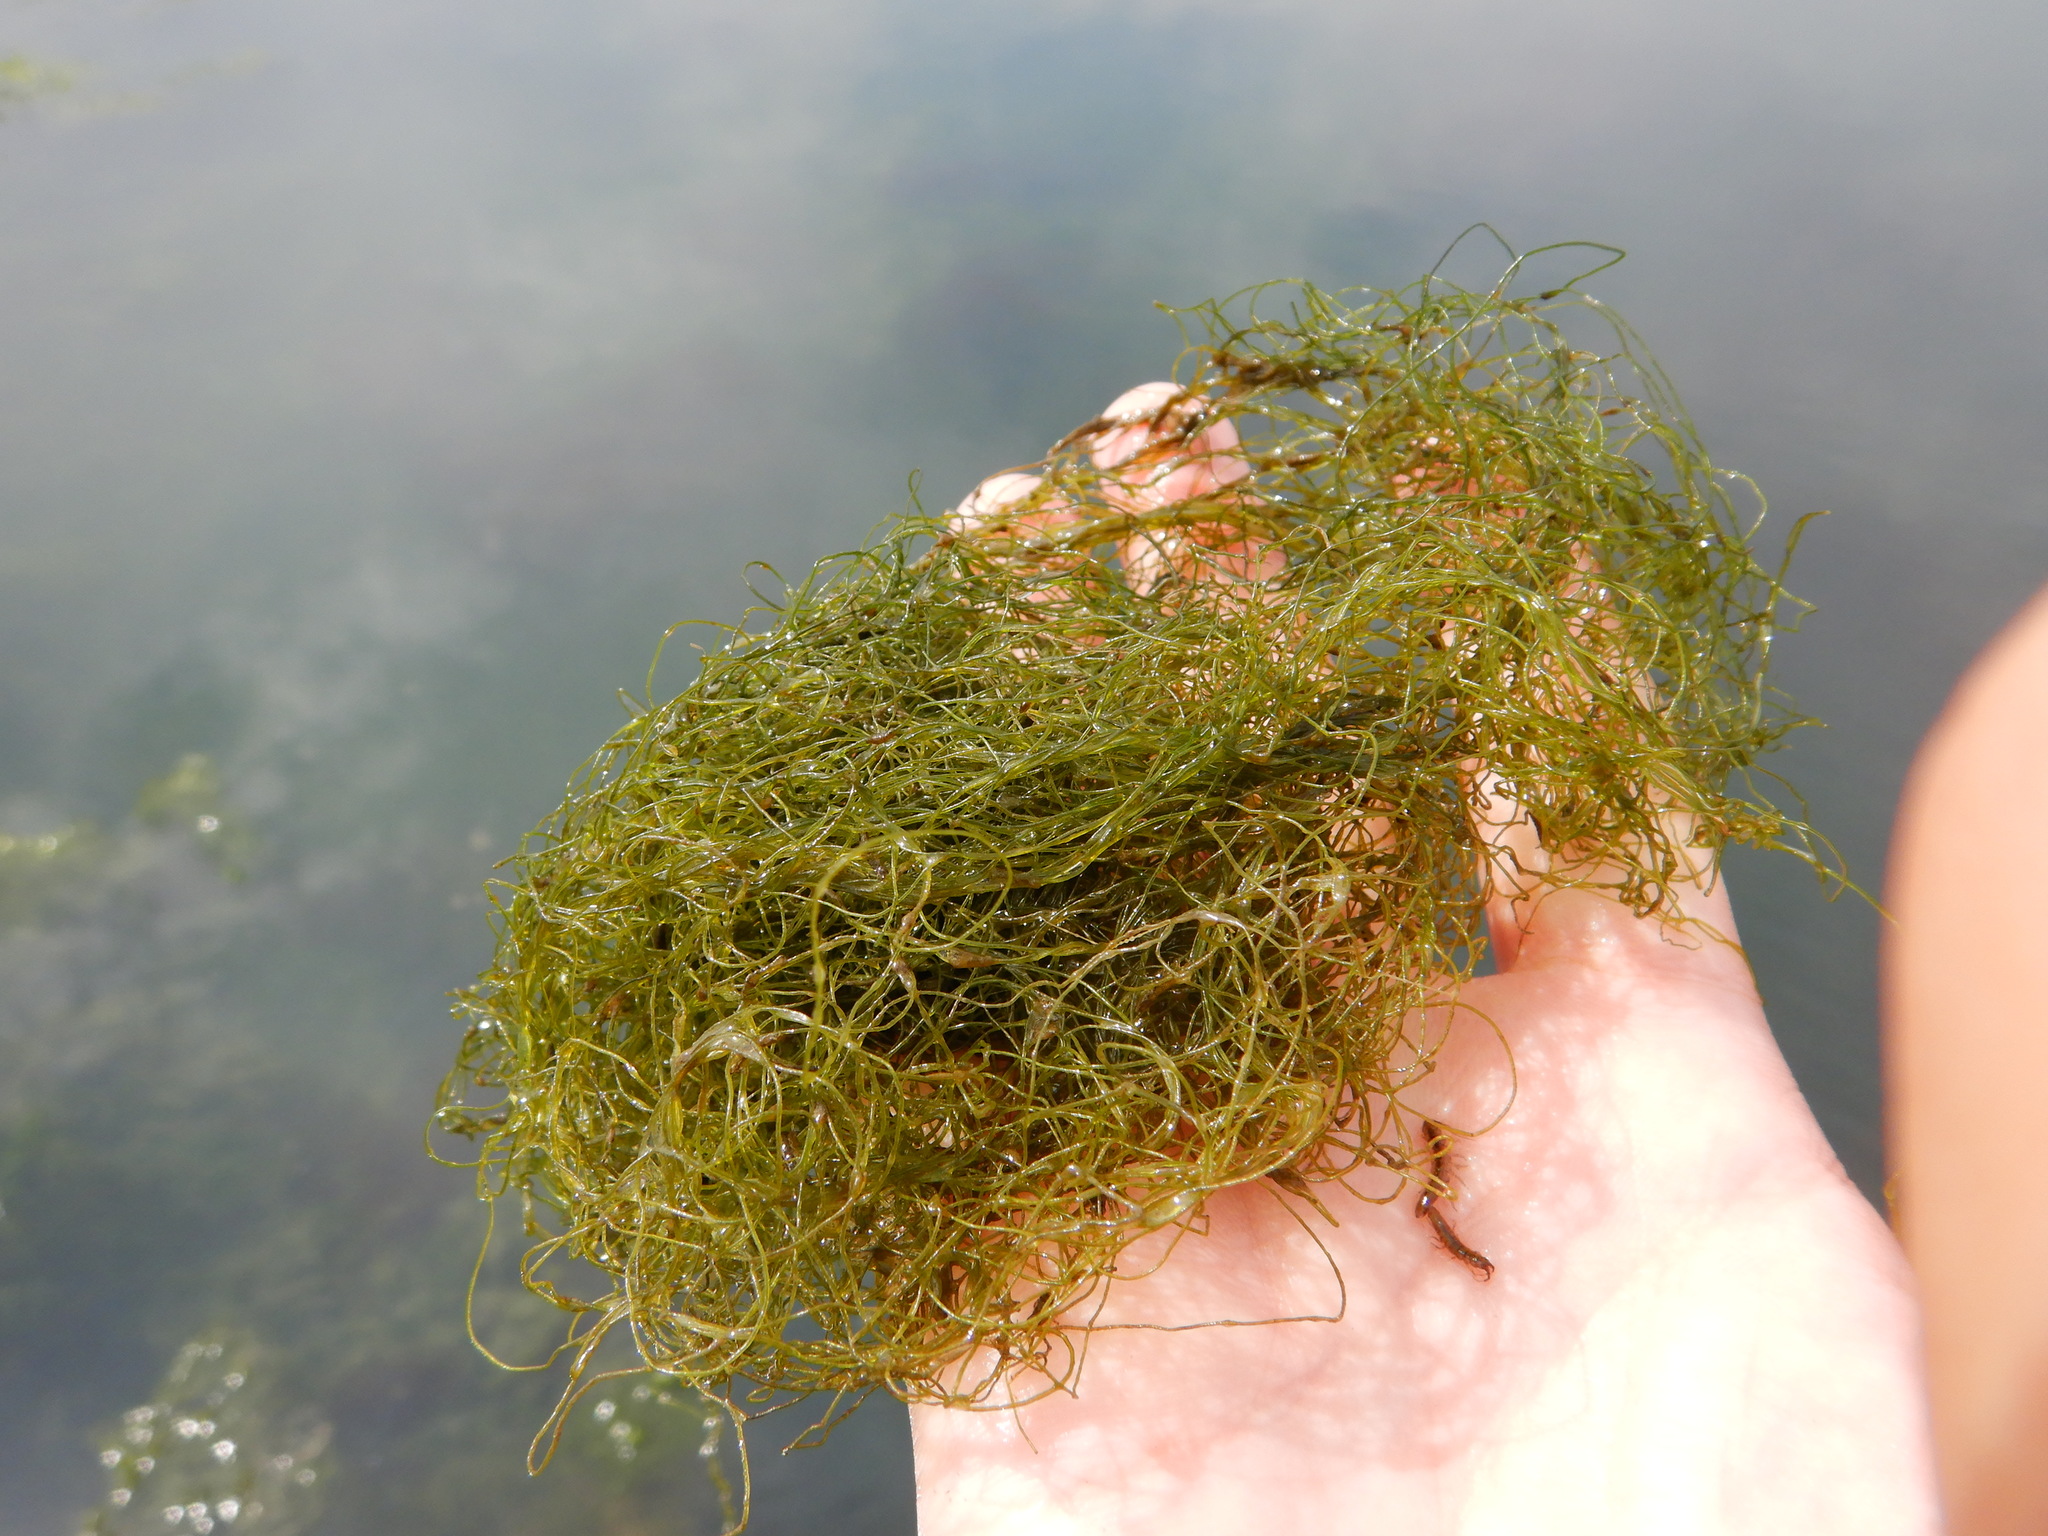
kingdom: Plantae
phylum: Chlorophyta
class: Ulvophyceae
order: Cladophorales
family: Cladophoraceae
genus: Chaetomorpha
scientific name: Chaetomorpha linum
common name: Sea hair
